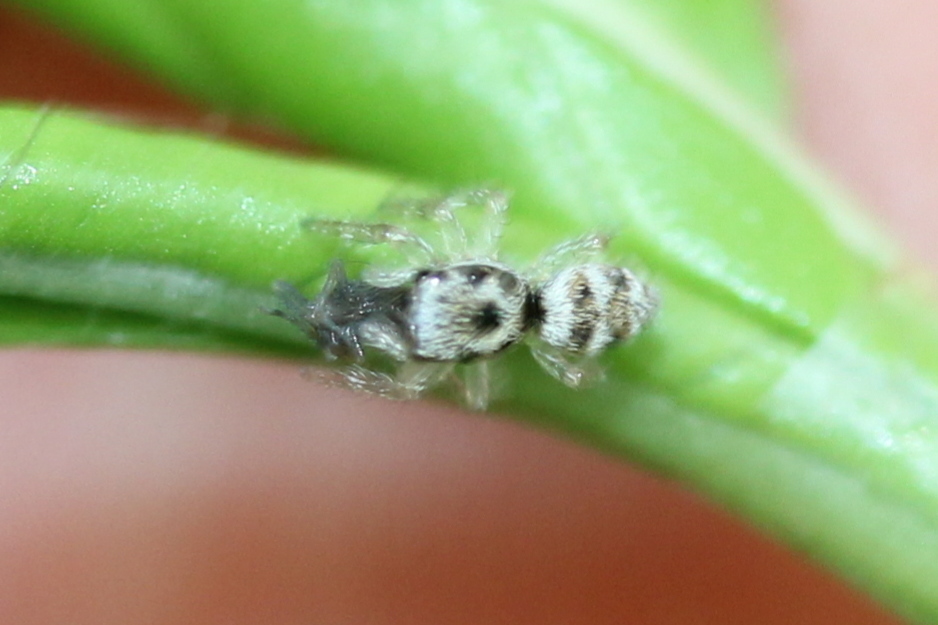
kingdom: Animalia
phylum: Arthropoda
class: Arachnida
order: Araneae
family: Salticidae
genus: Salticus
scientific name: Salticus scenicus
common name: Zebra jumper
